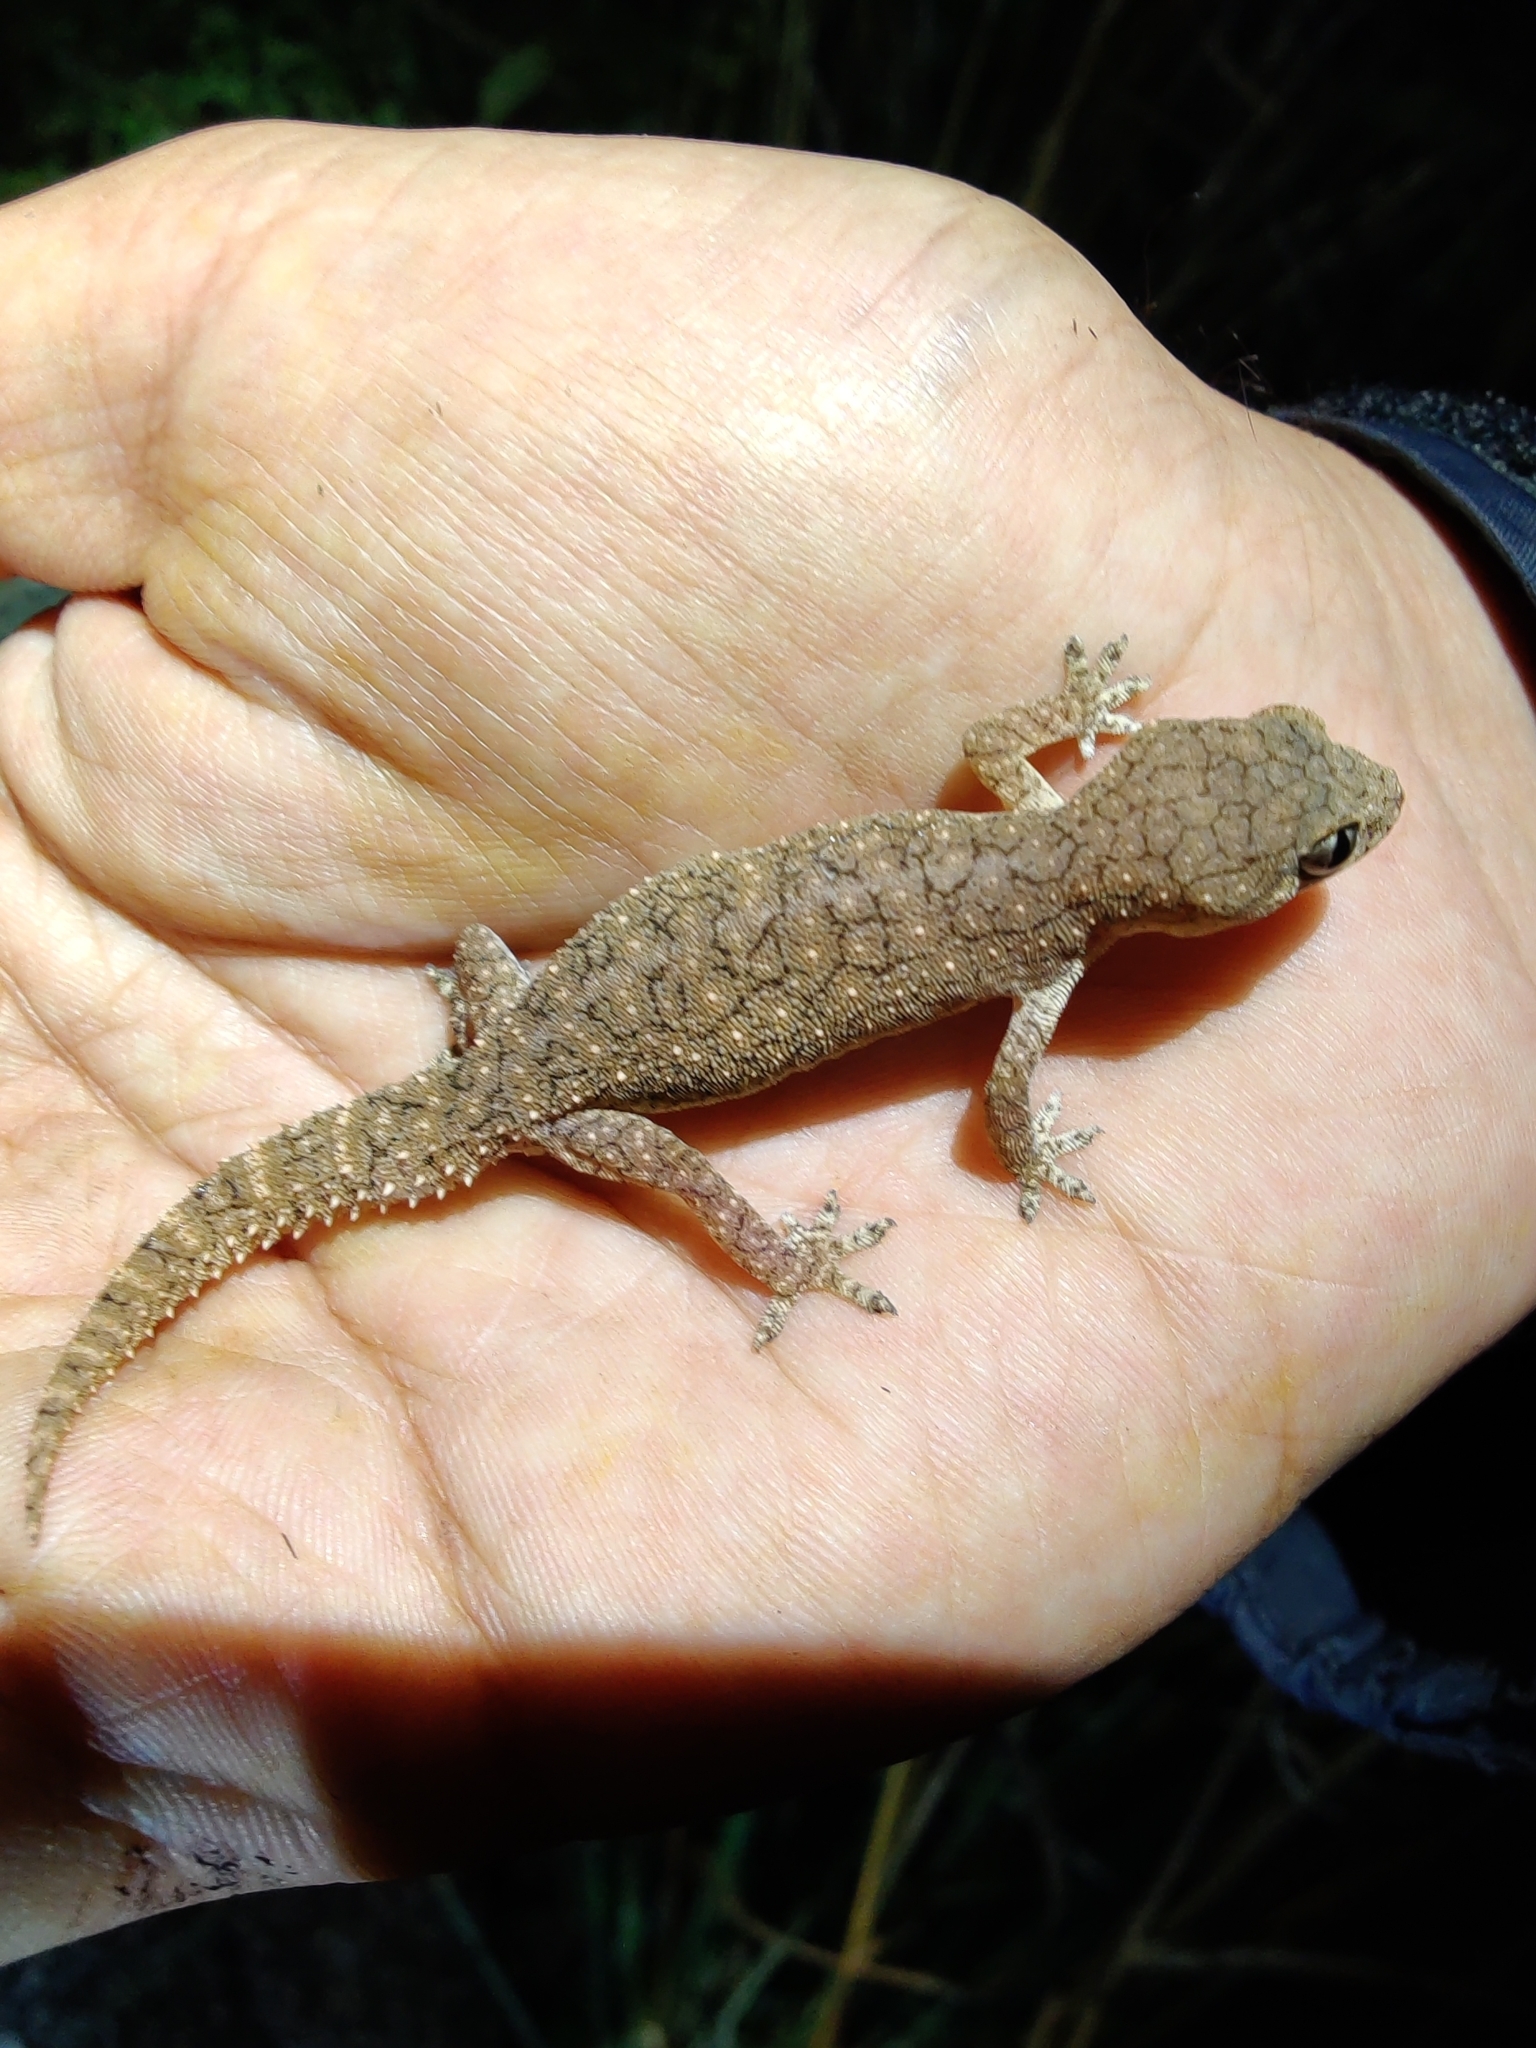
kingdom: Animalia
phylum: Chordata
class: Squamata
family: Gekkonidae
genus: Hemidactylus
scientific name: Hemidactylus reticulatus
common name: Reticulate leaf-toed gecko
